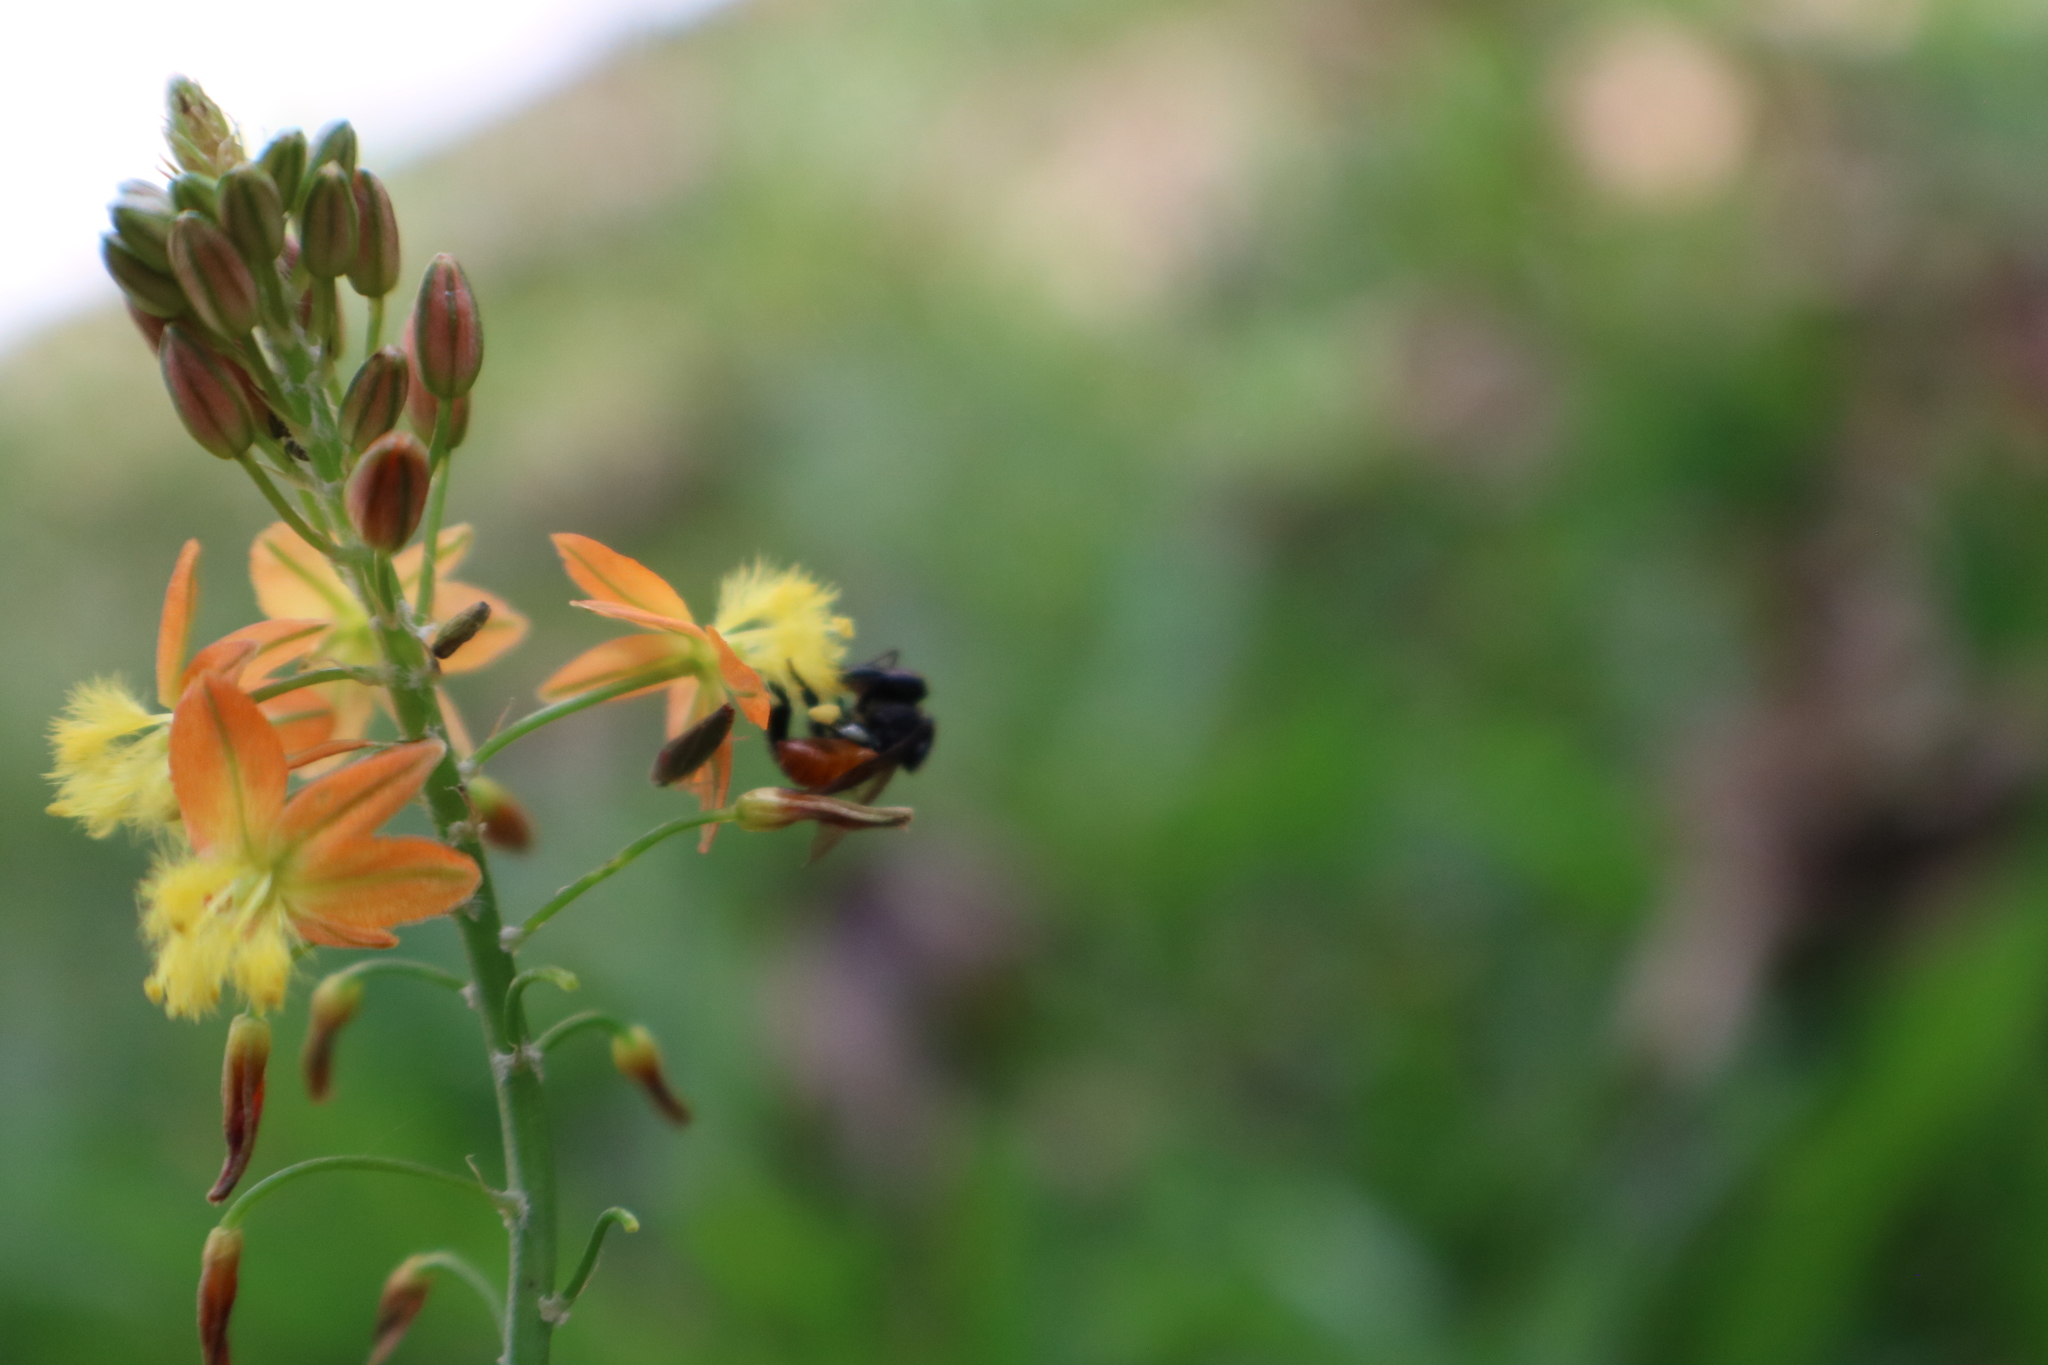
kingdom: Animalia
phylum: Arthropoda
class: Insecta
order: Hymenoptera
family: Apidae
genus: Trigona
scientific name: Trigona fulviventris
